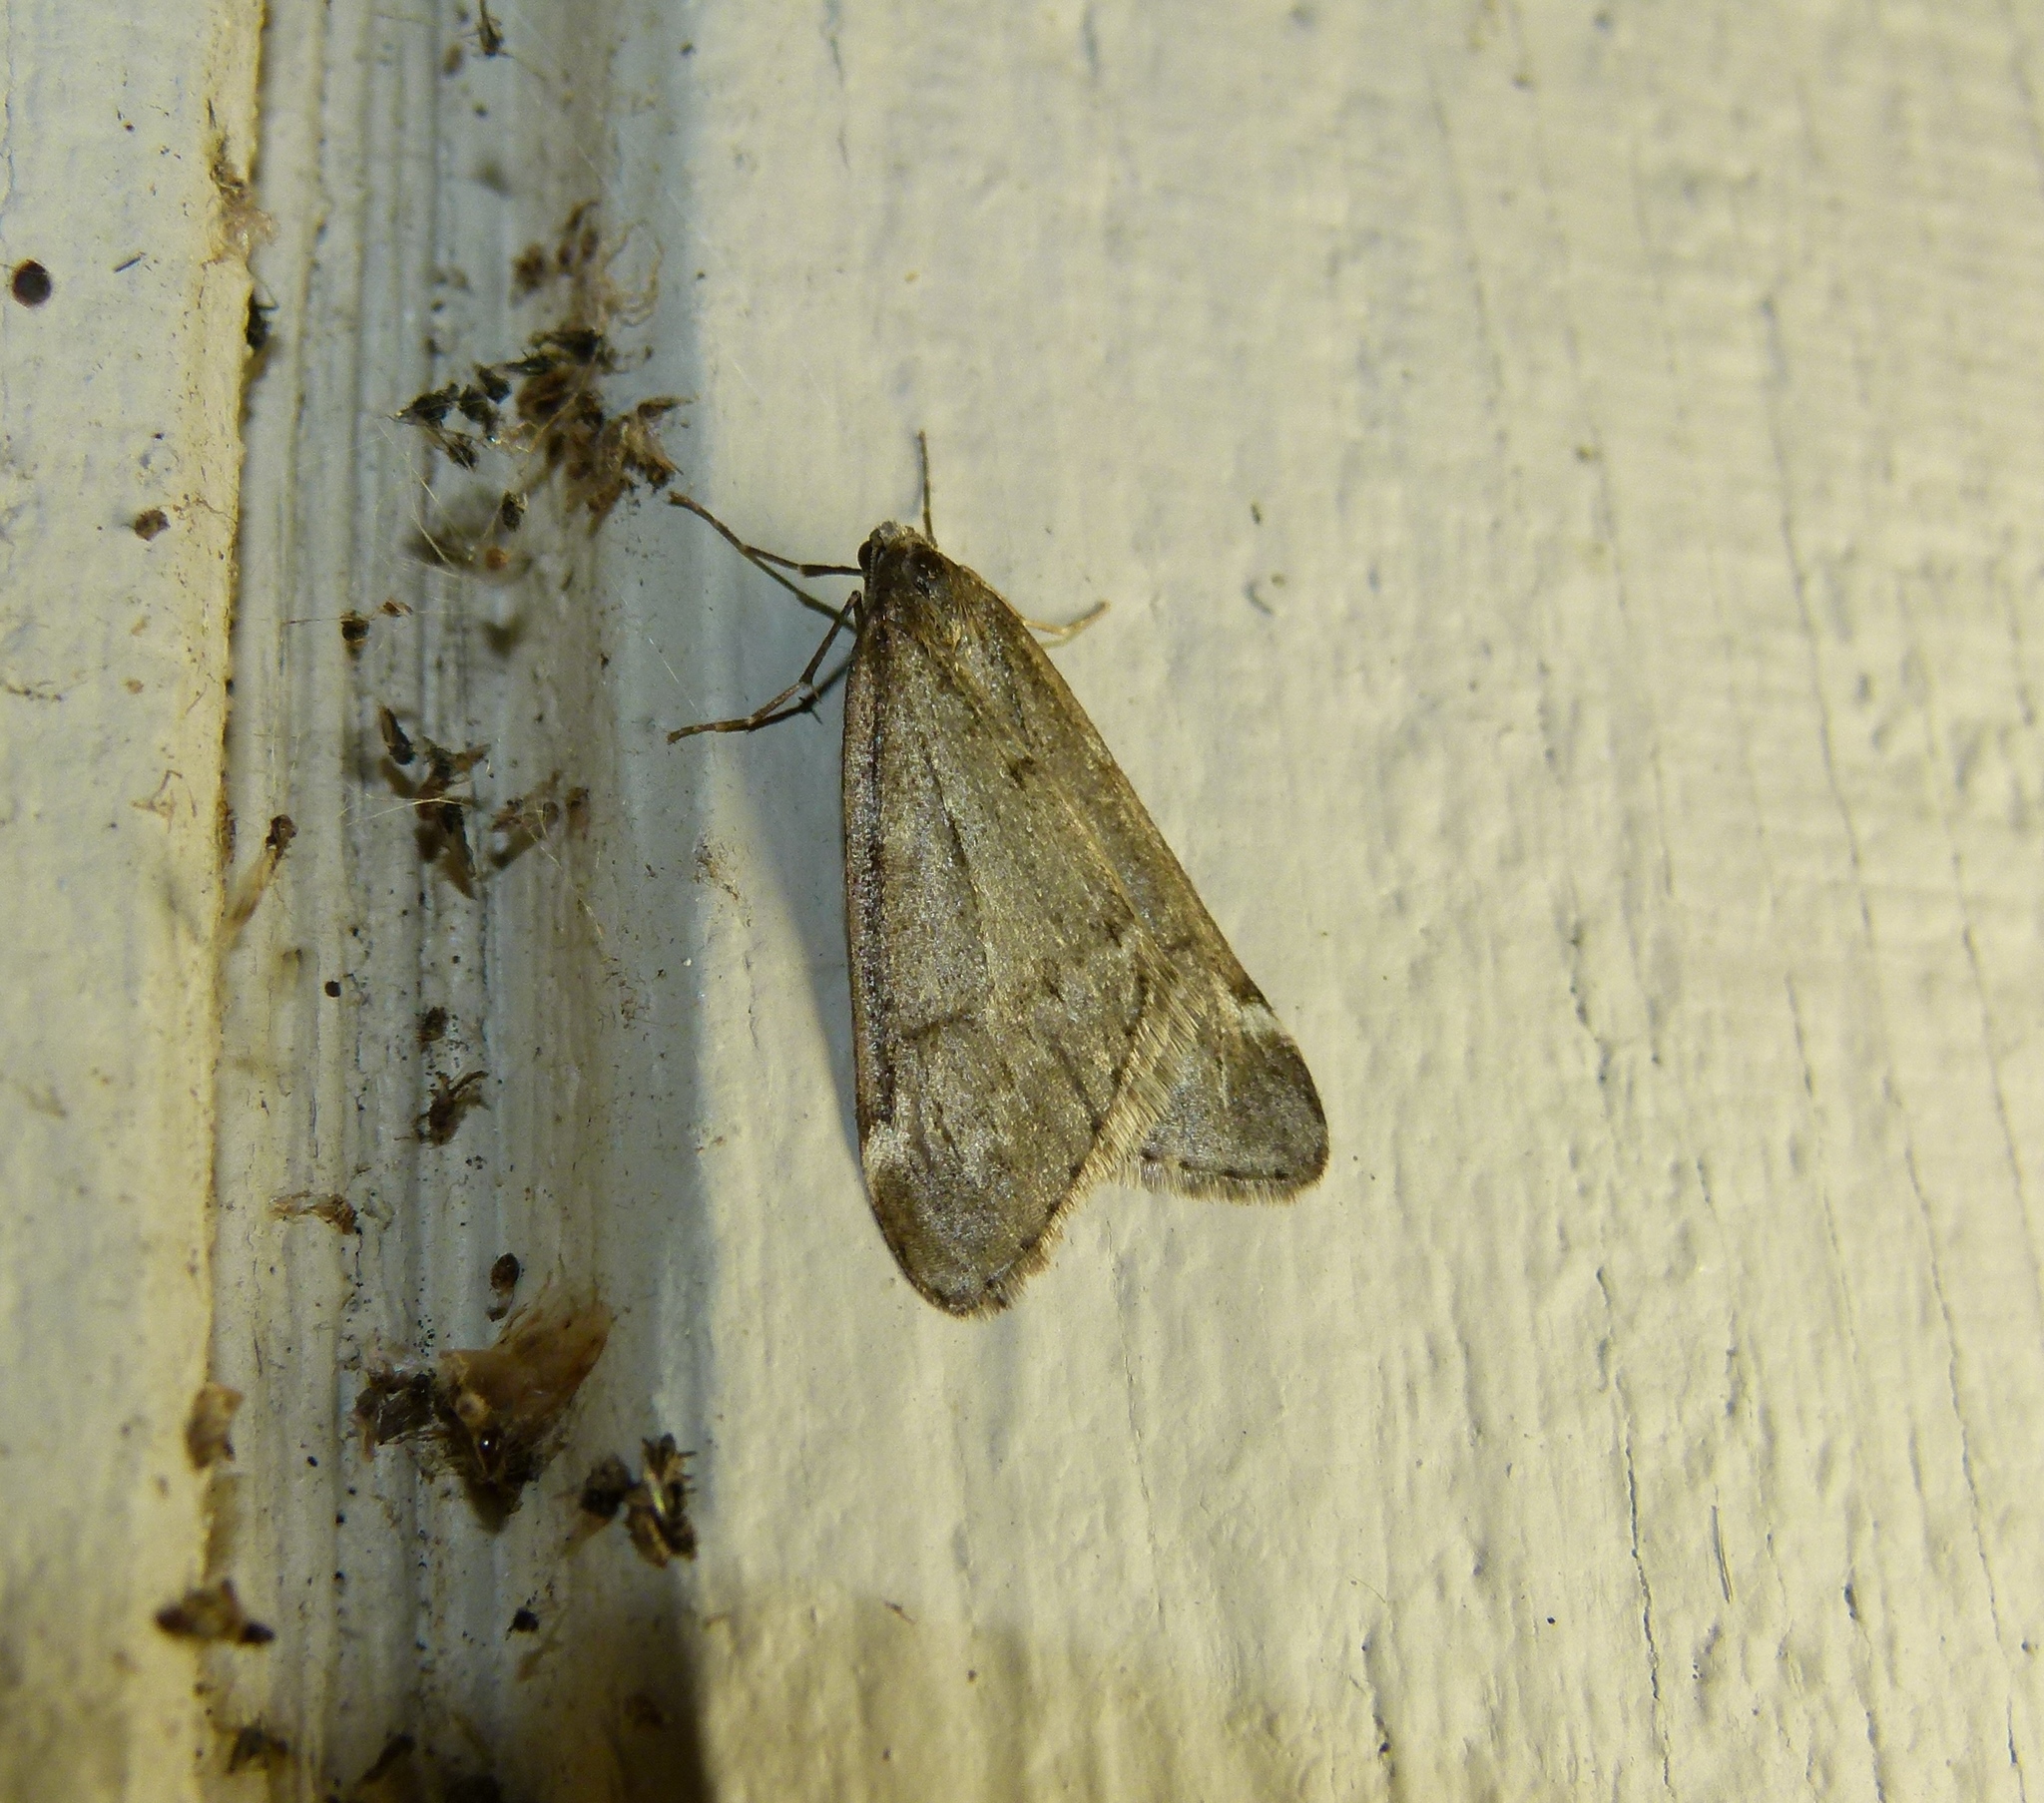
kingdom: Animalia
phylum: Arthropoda
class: Insecta
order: Lepidoptera
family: Geometridae
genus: Alsophila
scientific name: Alsophila pometaria
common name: Fall cankerworm
